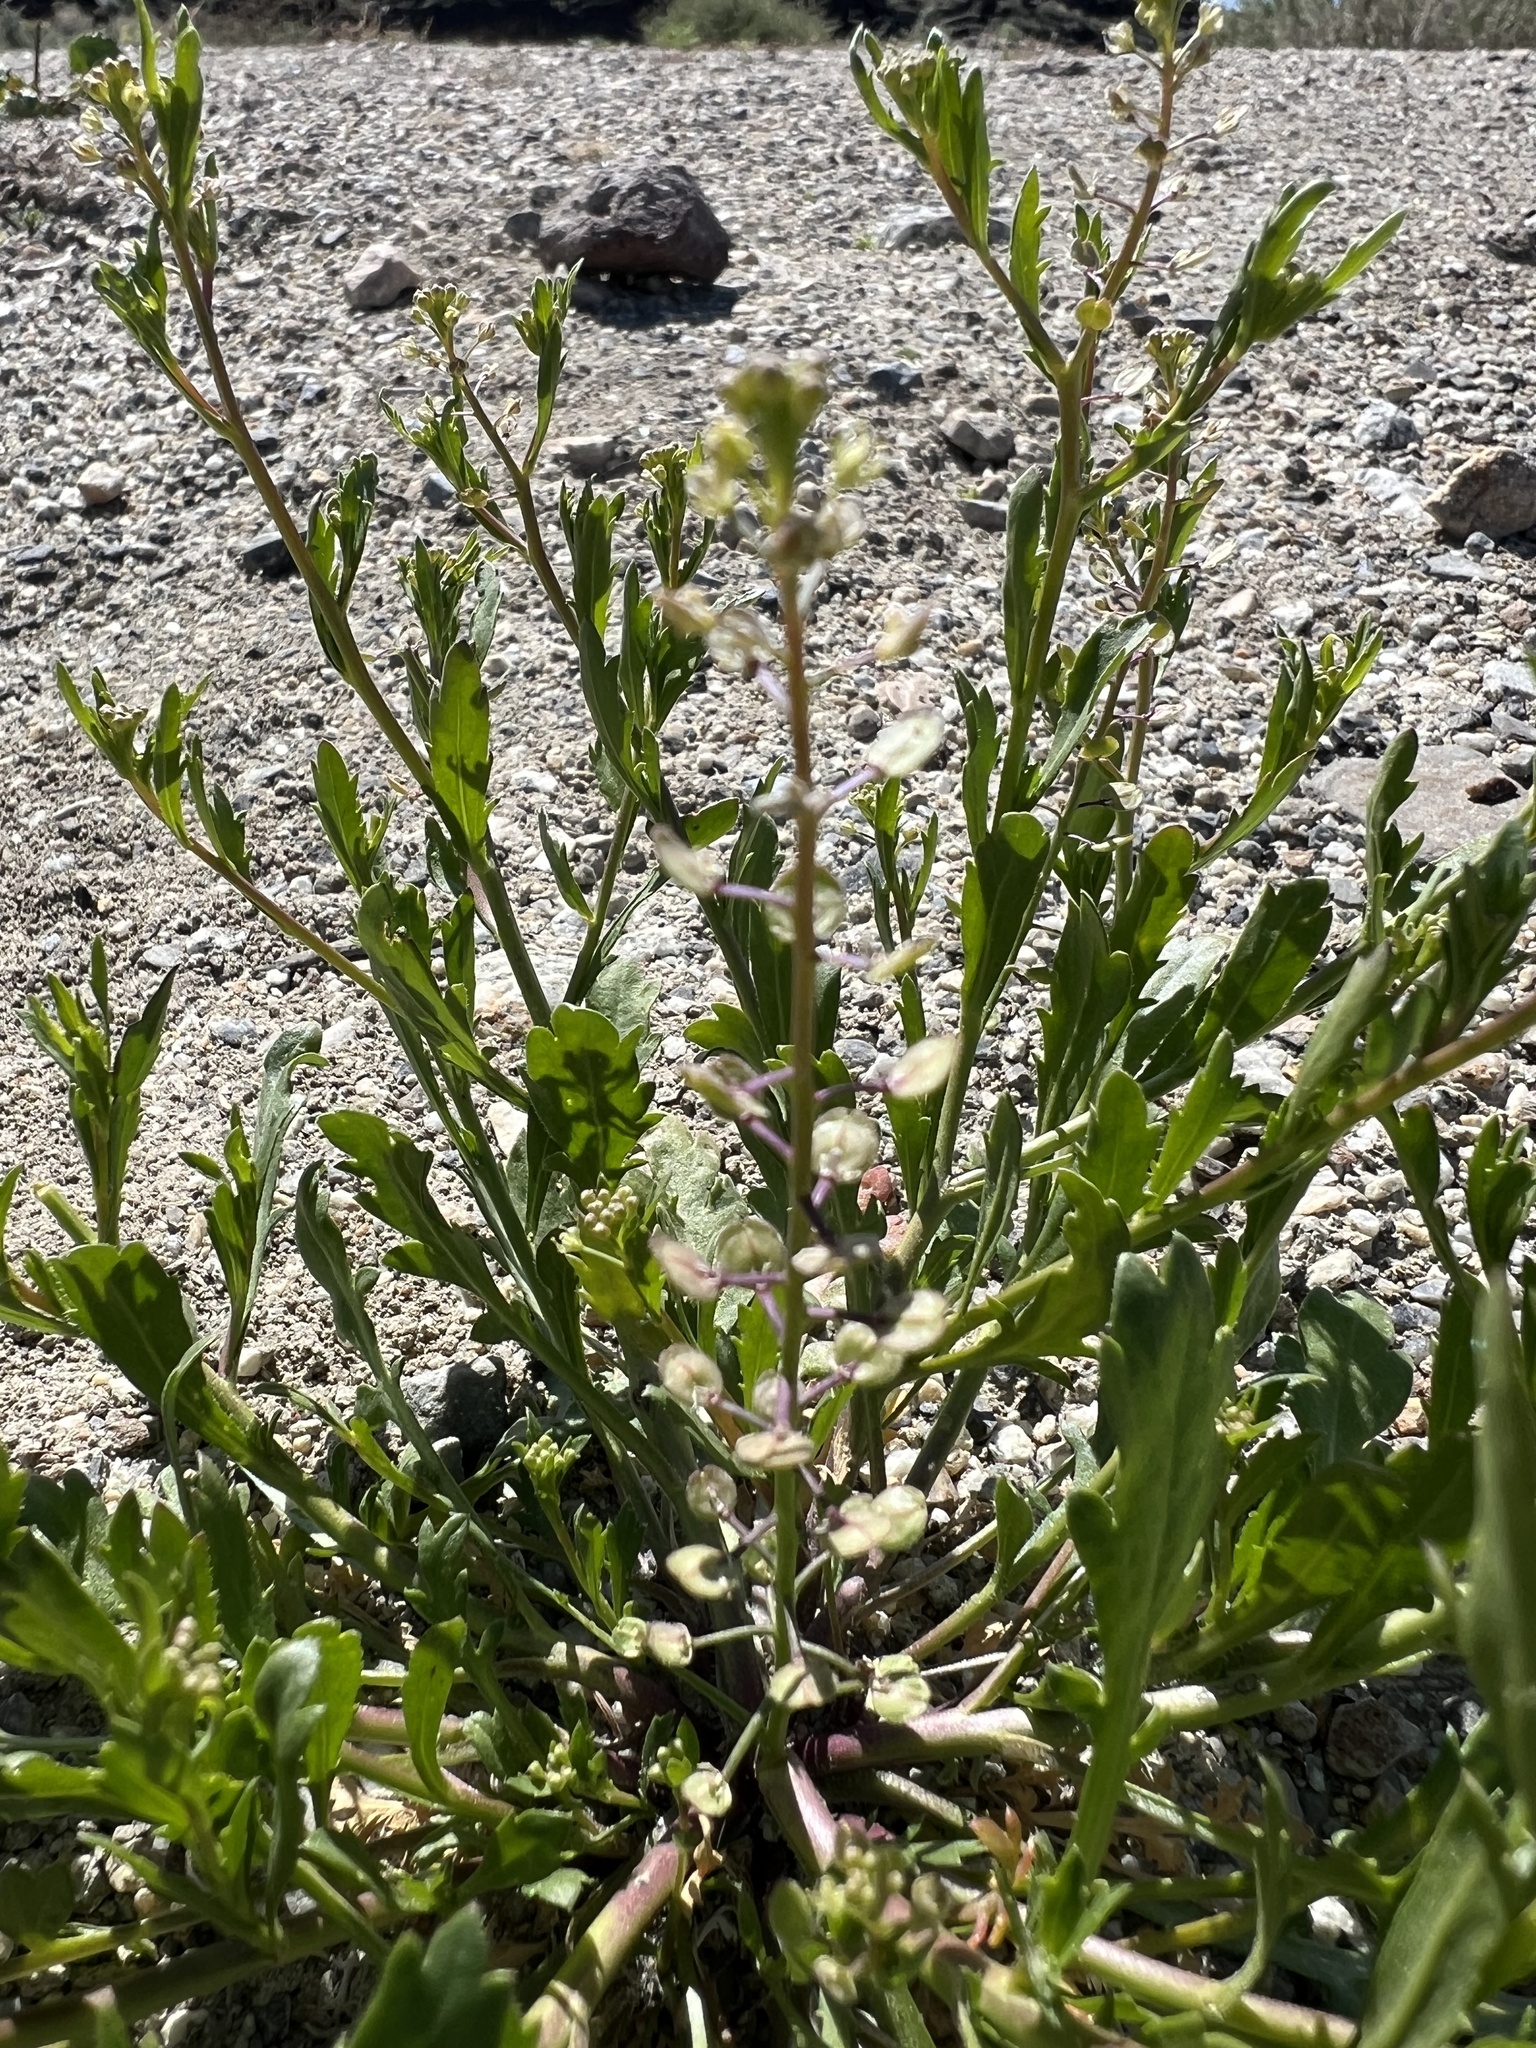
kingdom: Plantae
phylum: Tracheophyta
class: Magnoliopsida
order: Brassicales
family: Brassicaceae
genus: Lepidium
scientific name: Lepidium lasiocarpum
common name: Hairy-pod pepperwort
